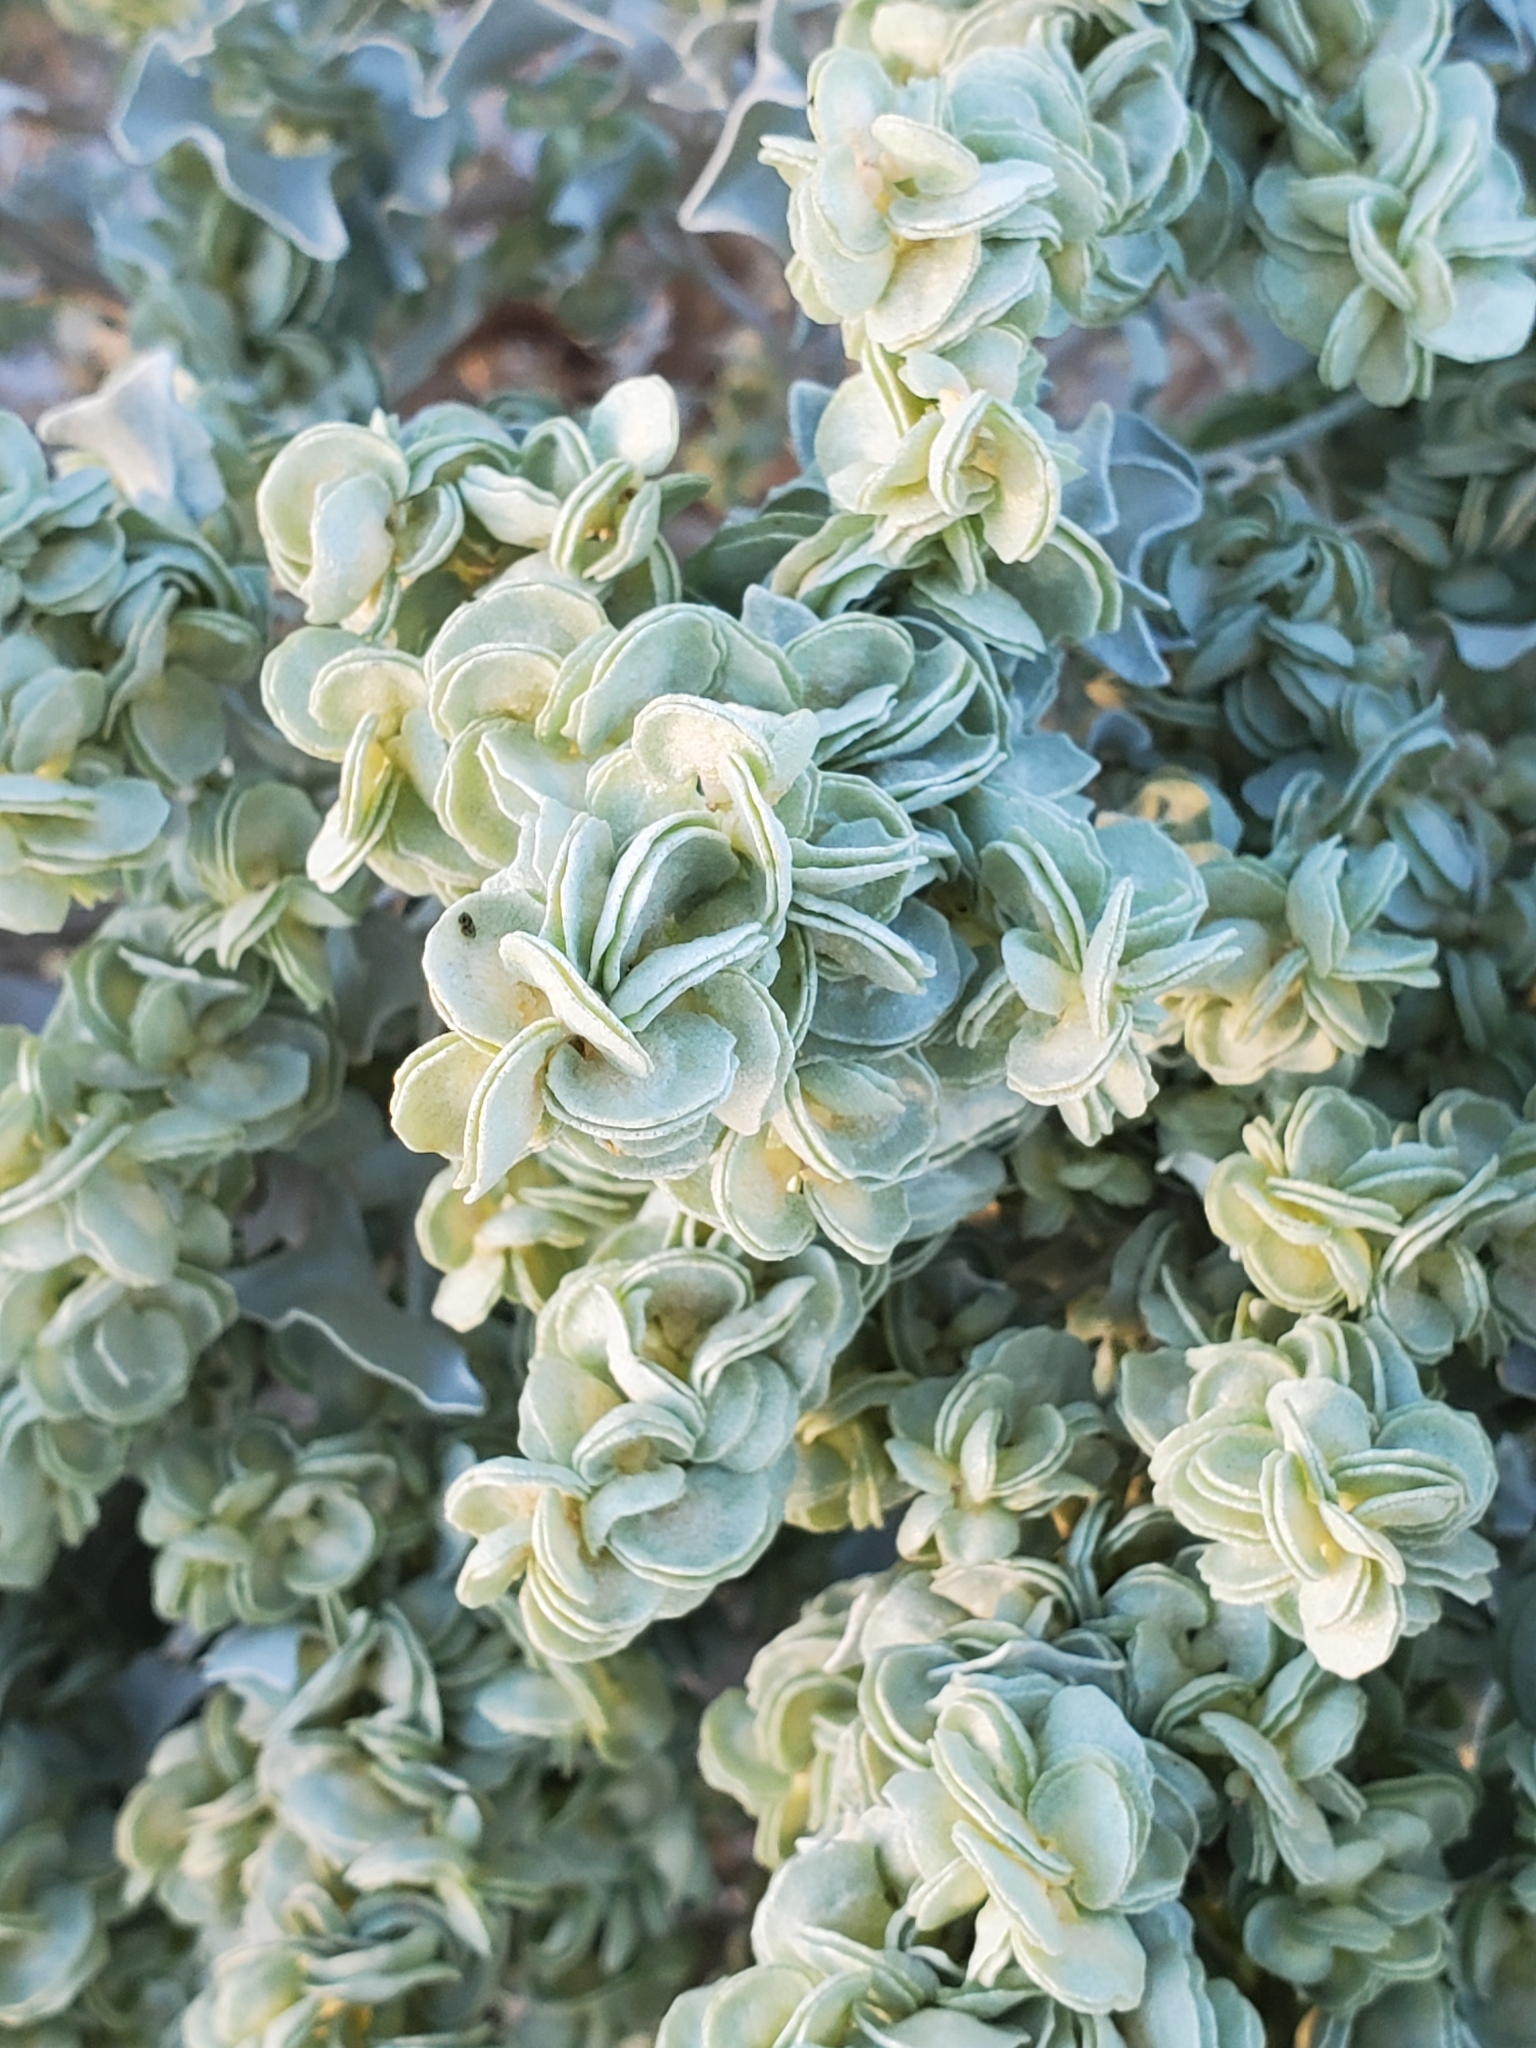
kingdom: Plantae
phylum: Tracheophyta
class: Magnoliopsida
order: Caryophyllales
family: Amaranthaceae
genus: Atriplex
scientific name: Atriplex hymenelytra
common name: Desert-holly
